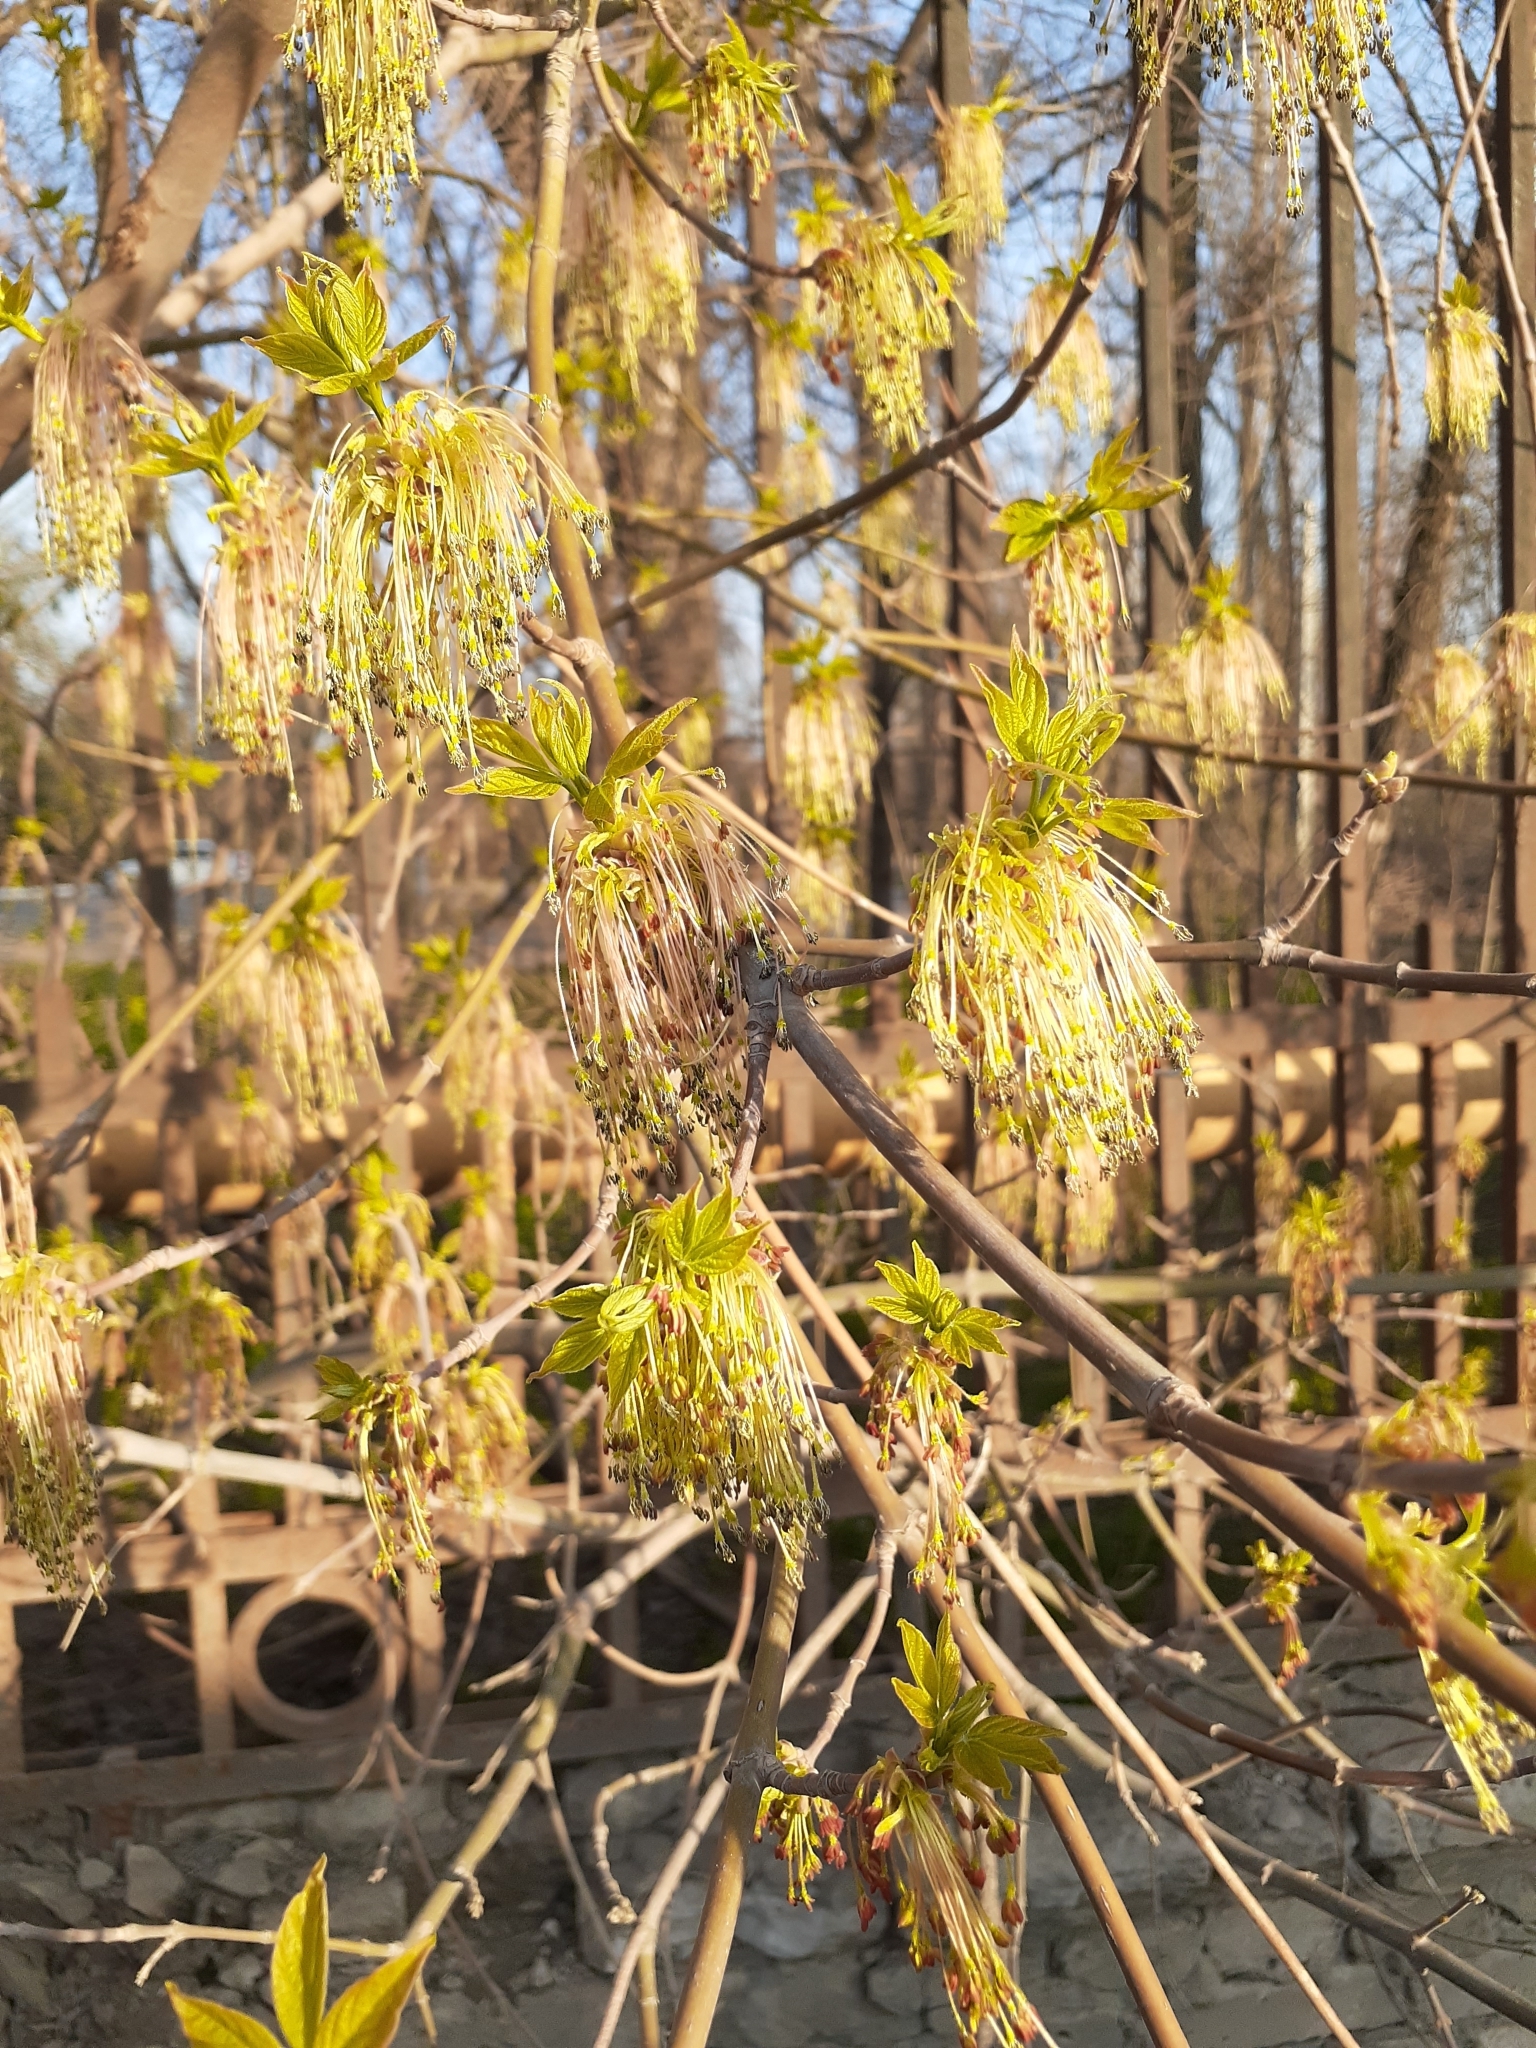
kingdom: Plantae
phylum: Tracheophyta
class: Magnoliopsida
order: Sapindales
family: Sapindaceae
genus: Acer
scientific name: Acer negundo
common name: Ashleaf maple
